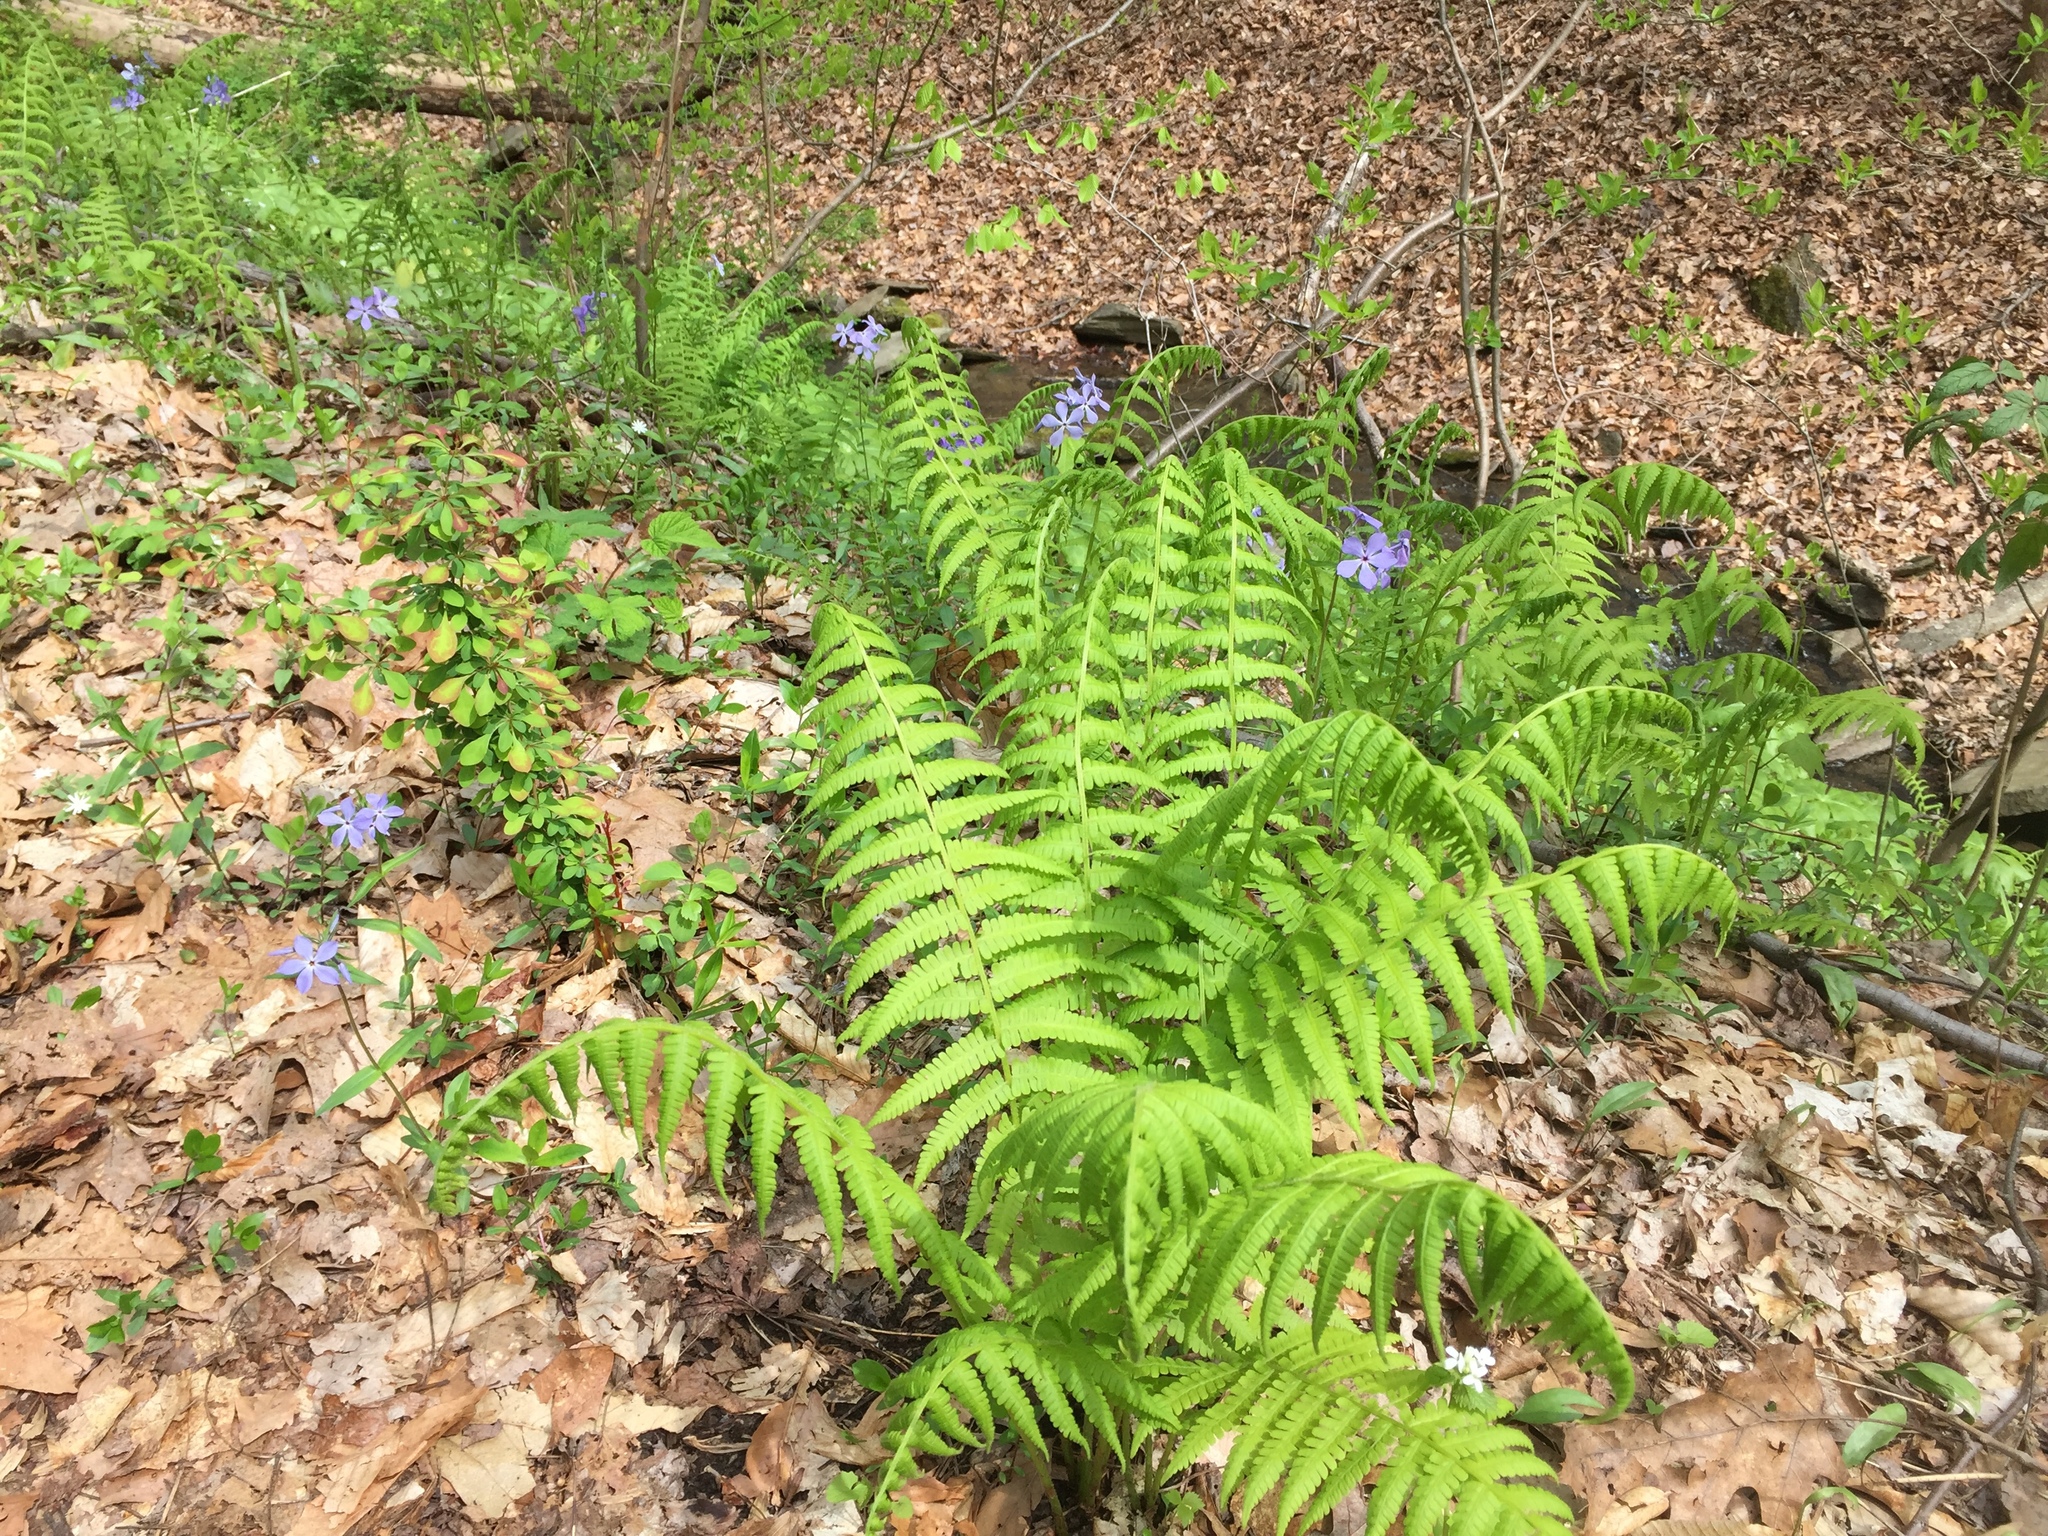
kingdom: Plantae
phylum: Tracheophyta
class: Polypodiopsida
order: Polypodiales
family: Athyriaceae
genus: Deparia
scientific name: Deparia acrostichoides
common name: Silver false spleenwort
